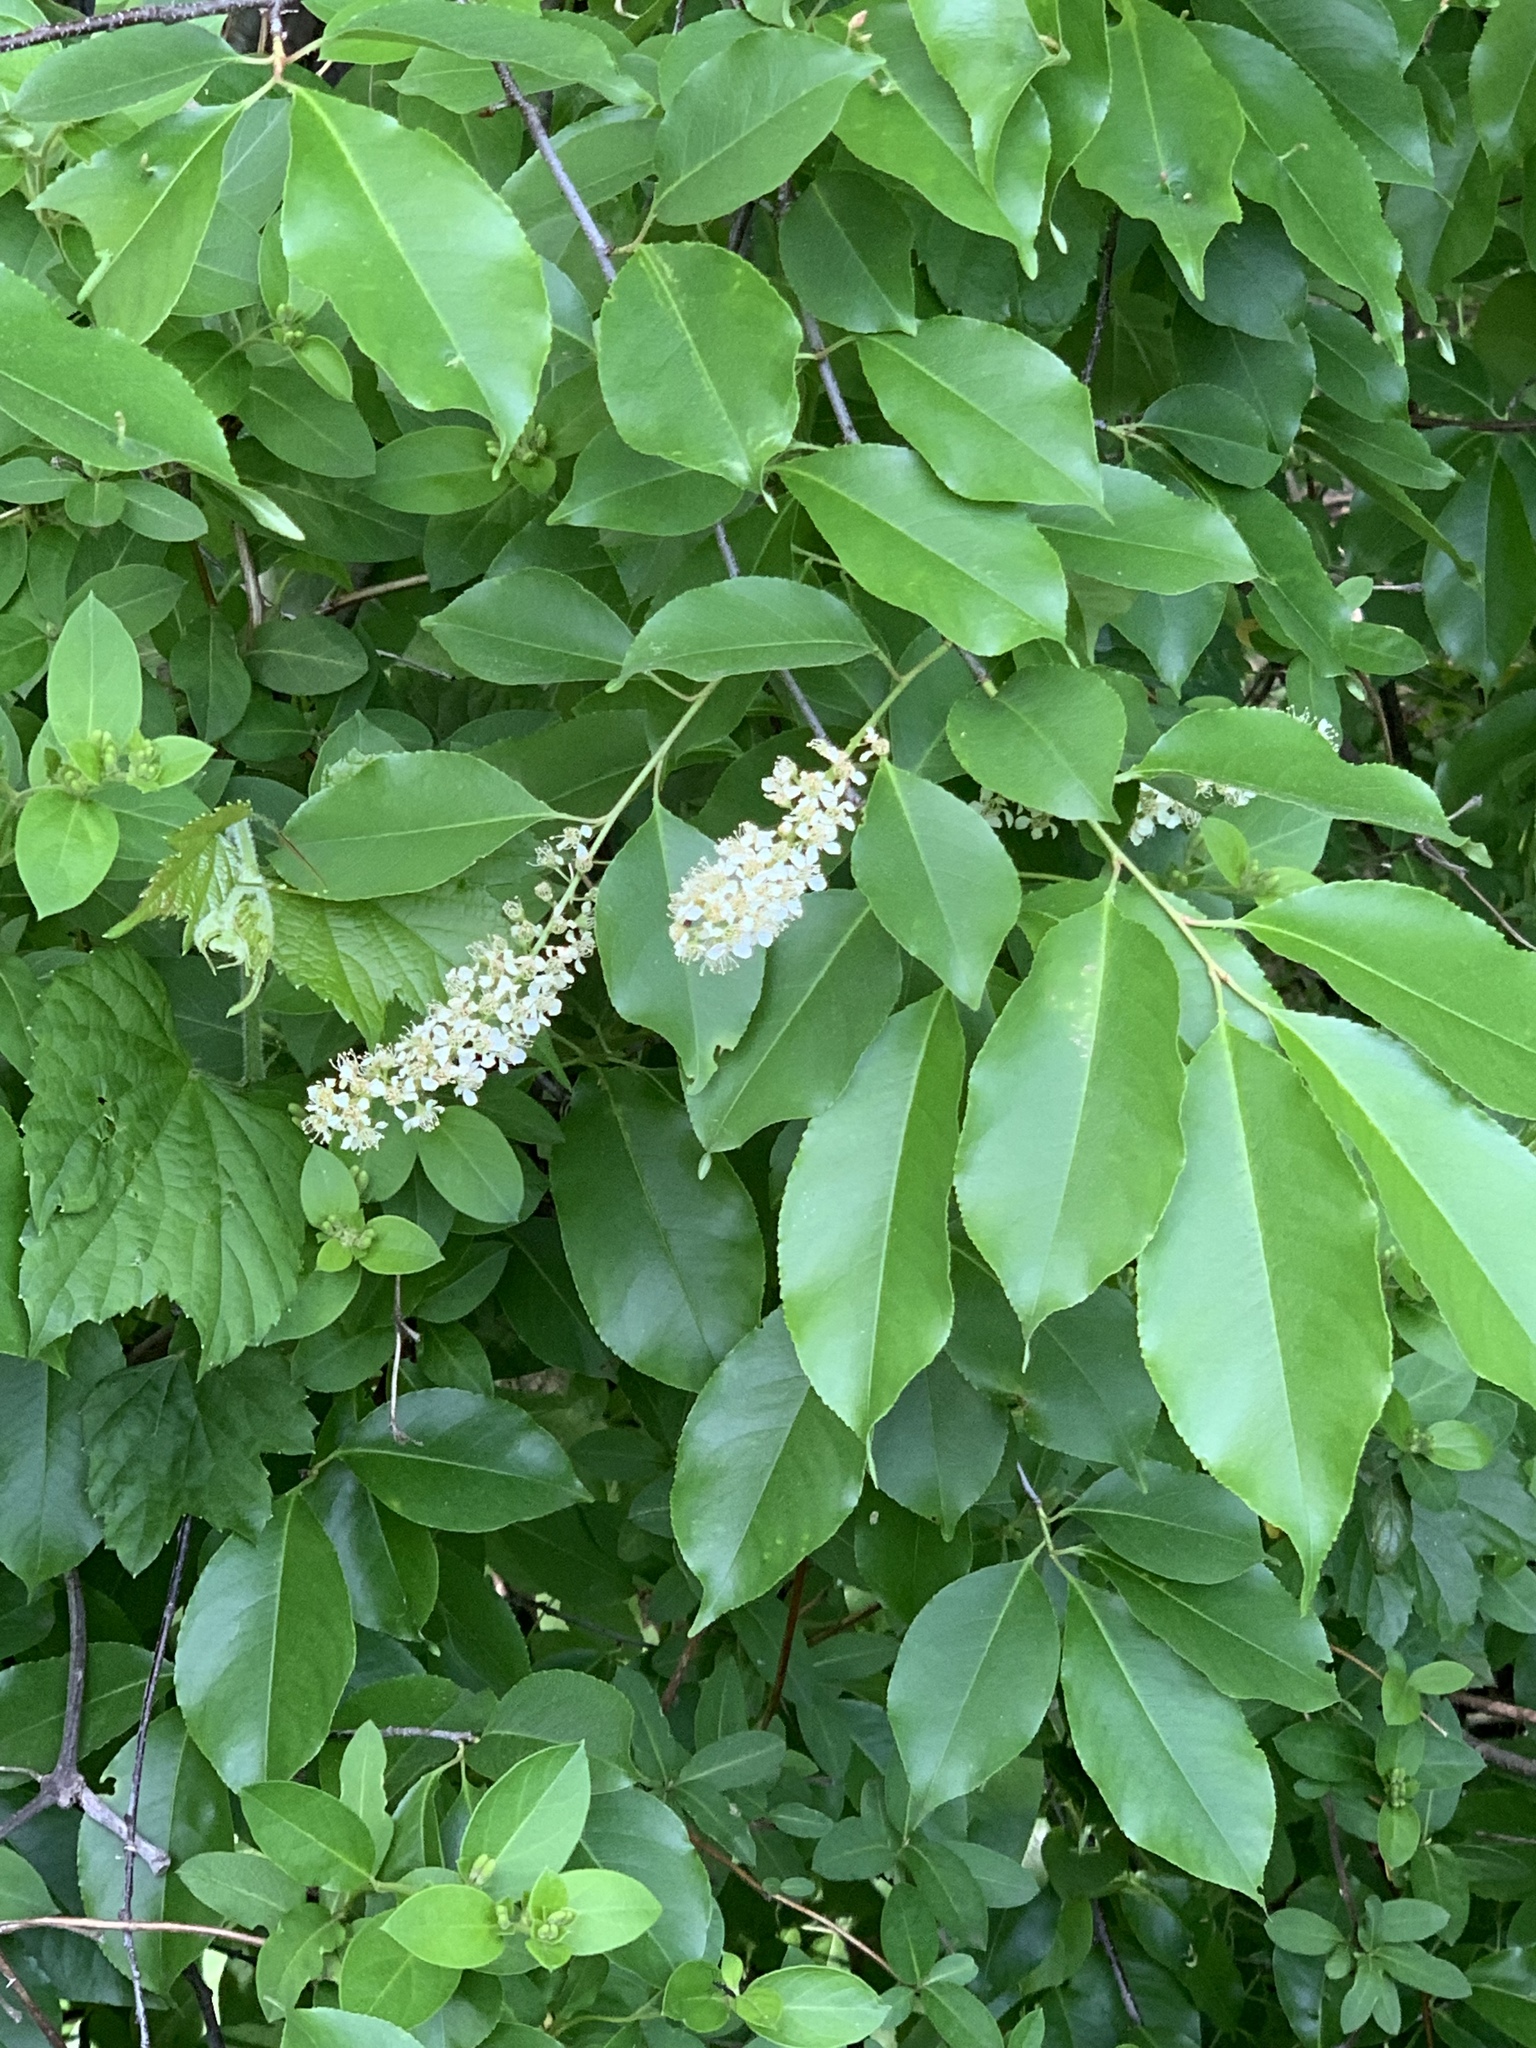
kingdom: Plantae
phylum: Tracheophyta
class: Magnoliopsida
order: Rosales
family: Rosaceae
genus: Prunus
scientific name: Prunus serotina
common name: Black cherry
